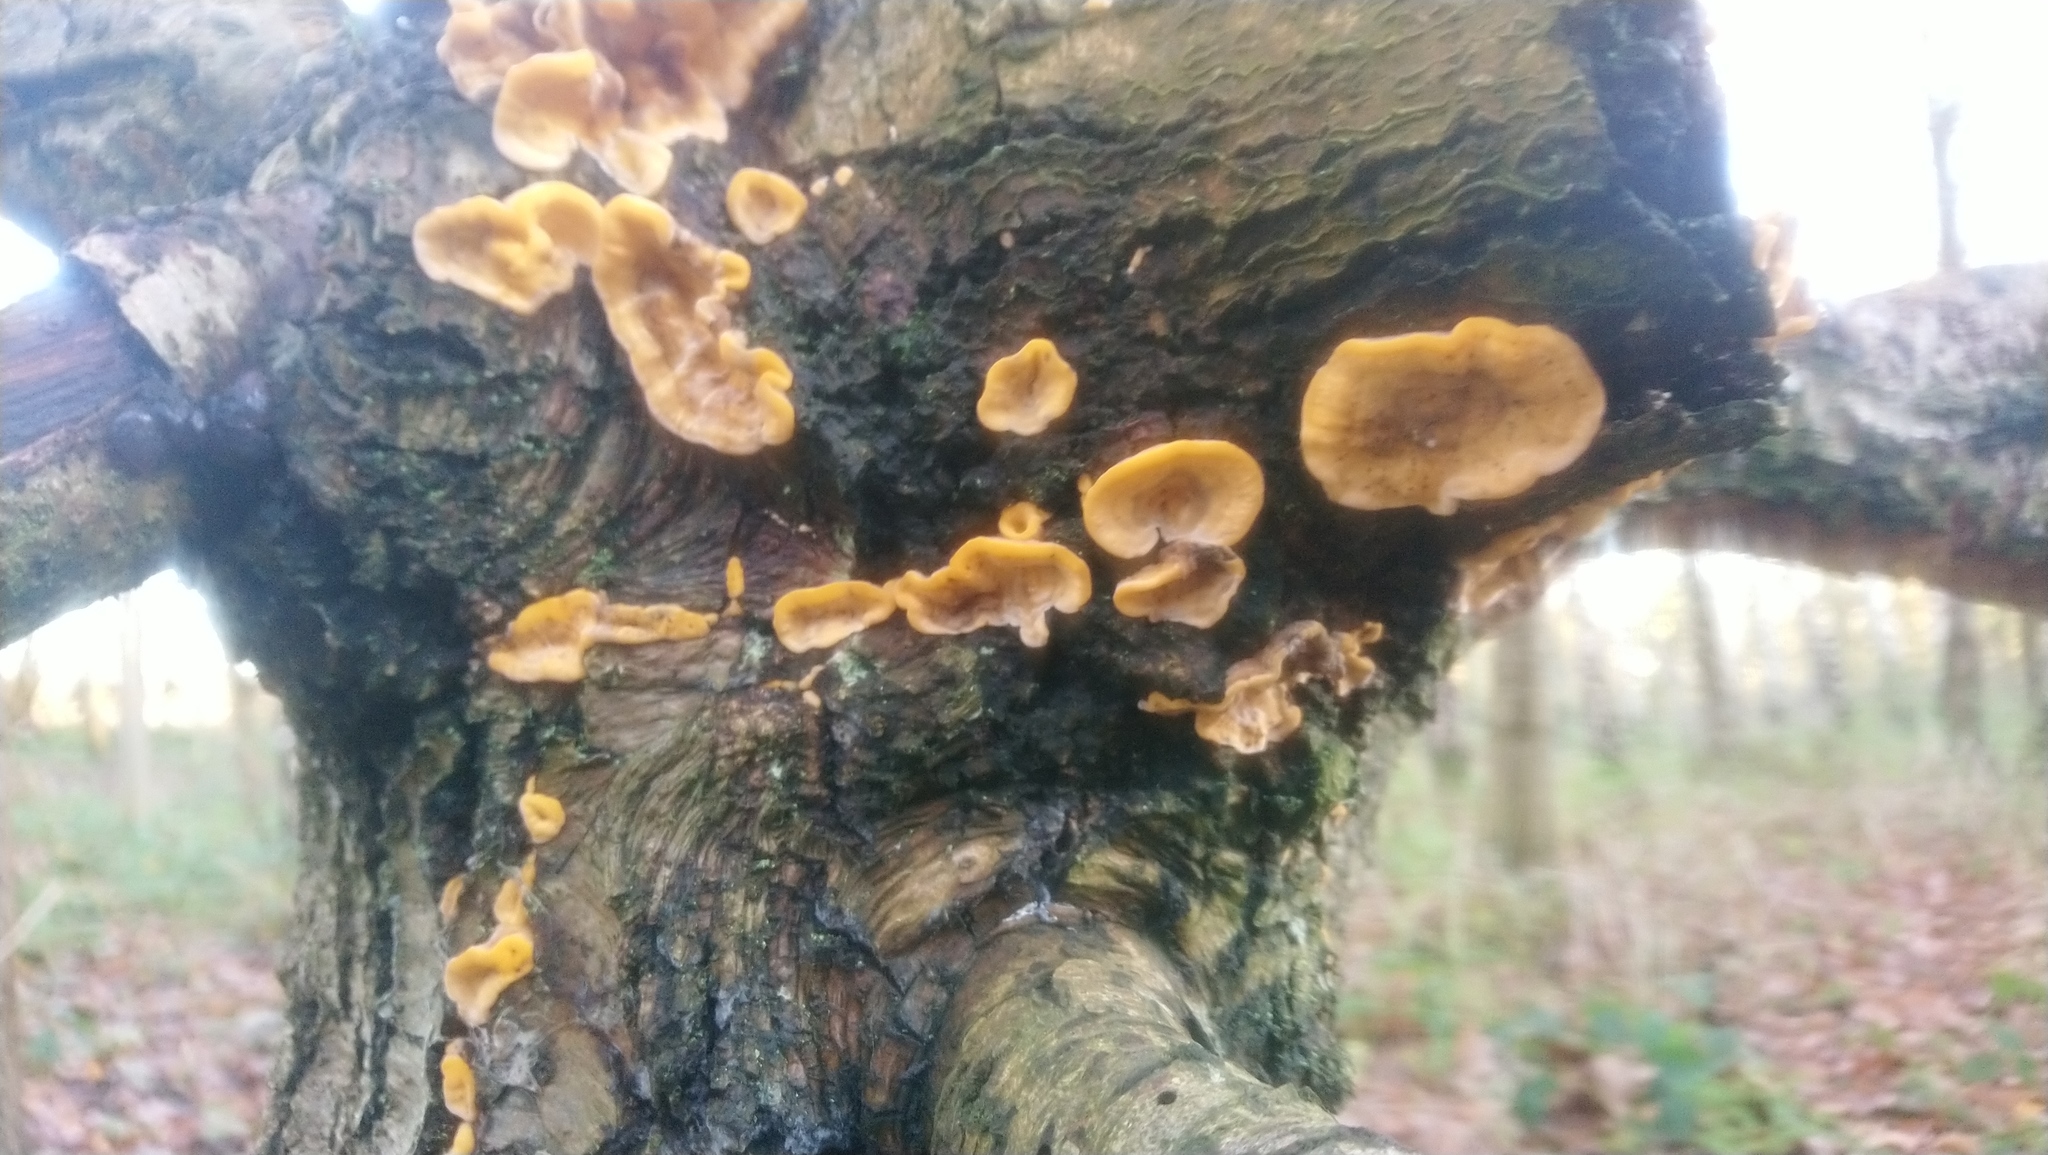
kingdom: Fungi
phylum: Basidiomycota
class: Agaricomycetes
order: Russulales
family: Stereaceae
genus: Stereum
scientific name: Stereum hirsutum
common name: Hairy curtain crust
